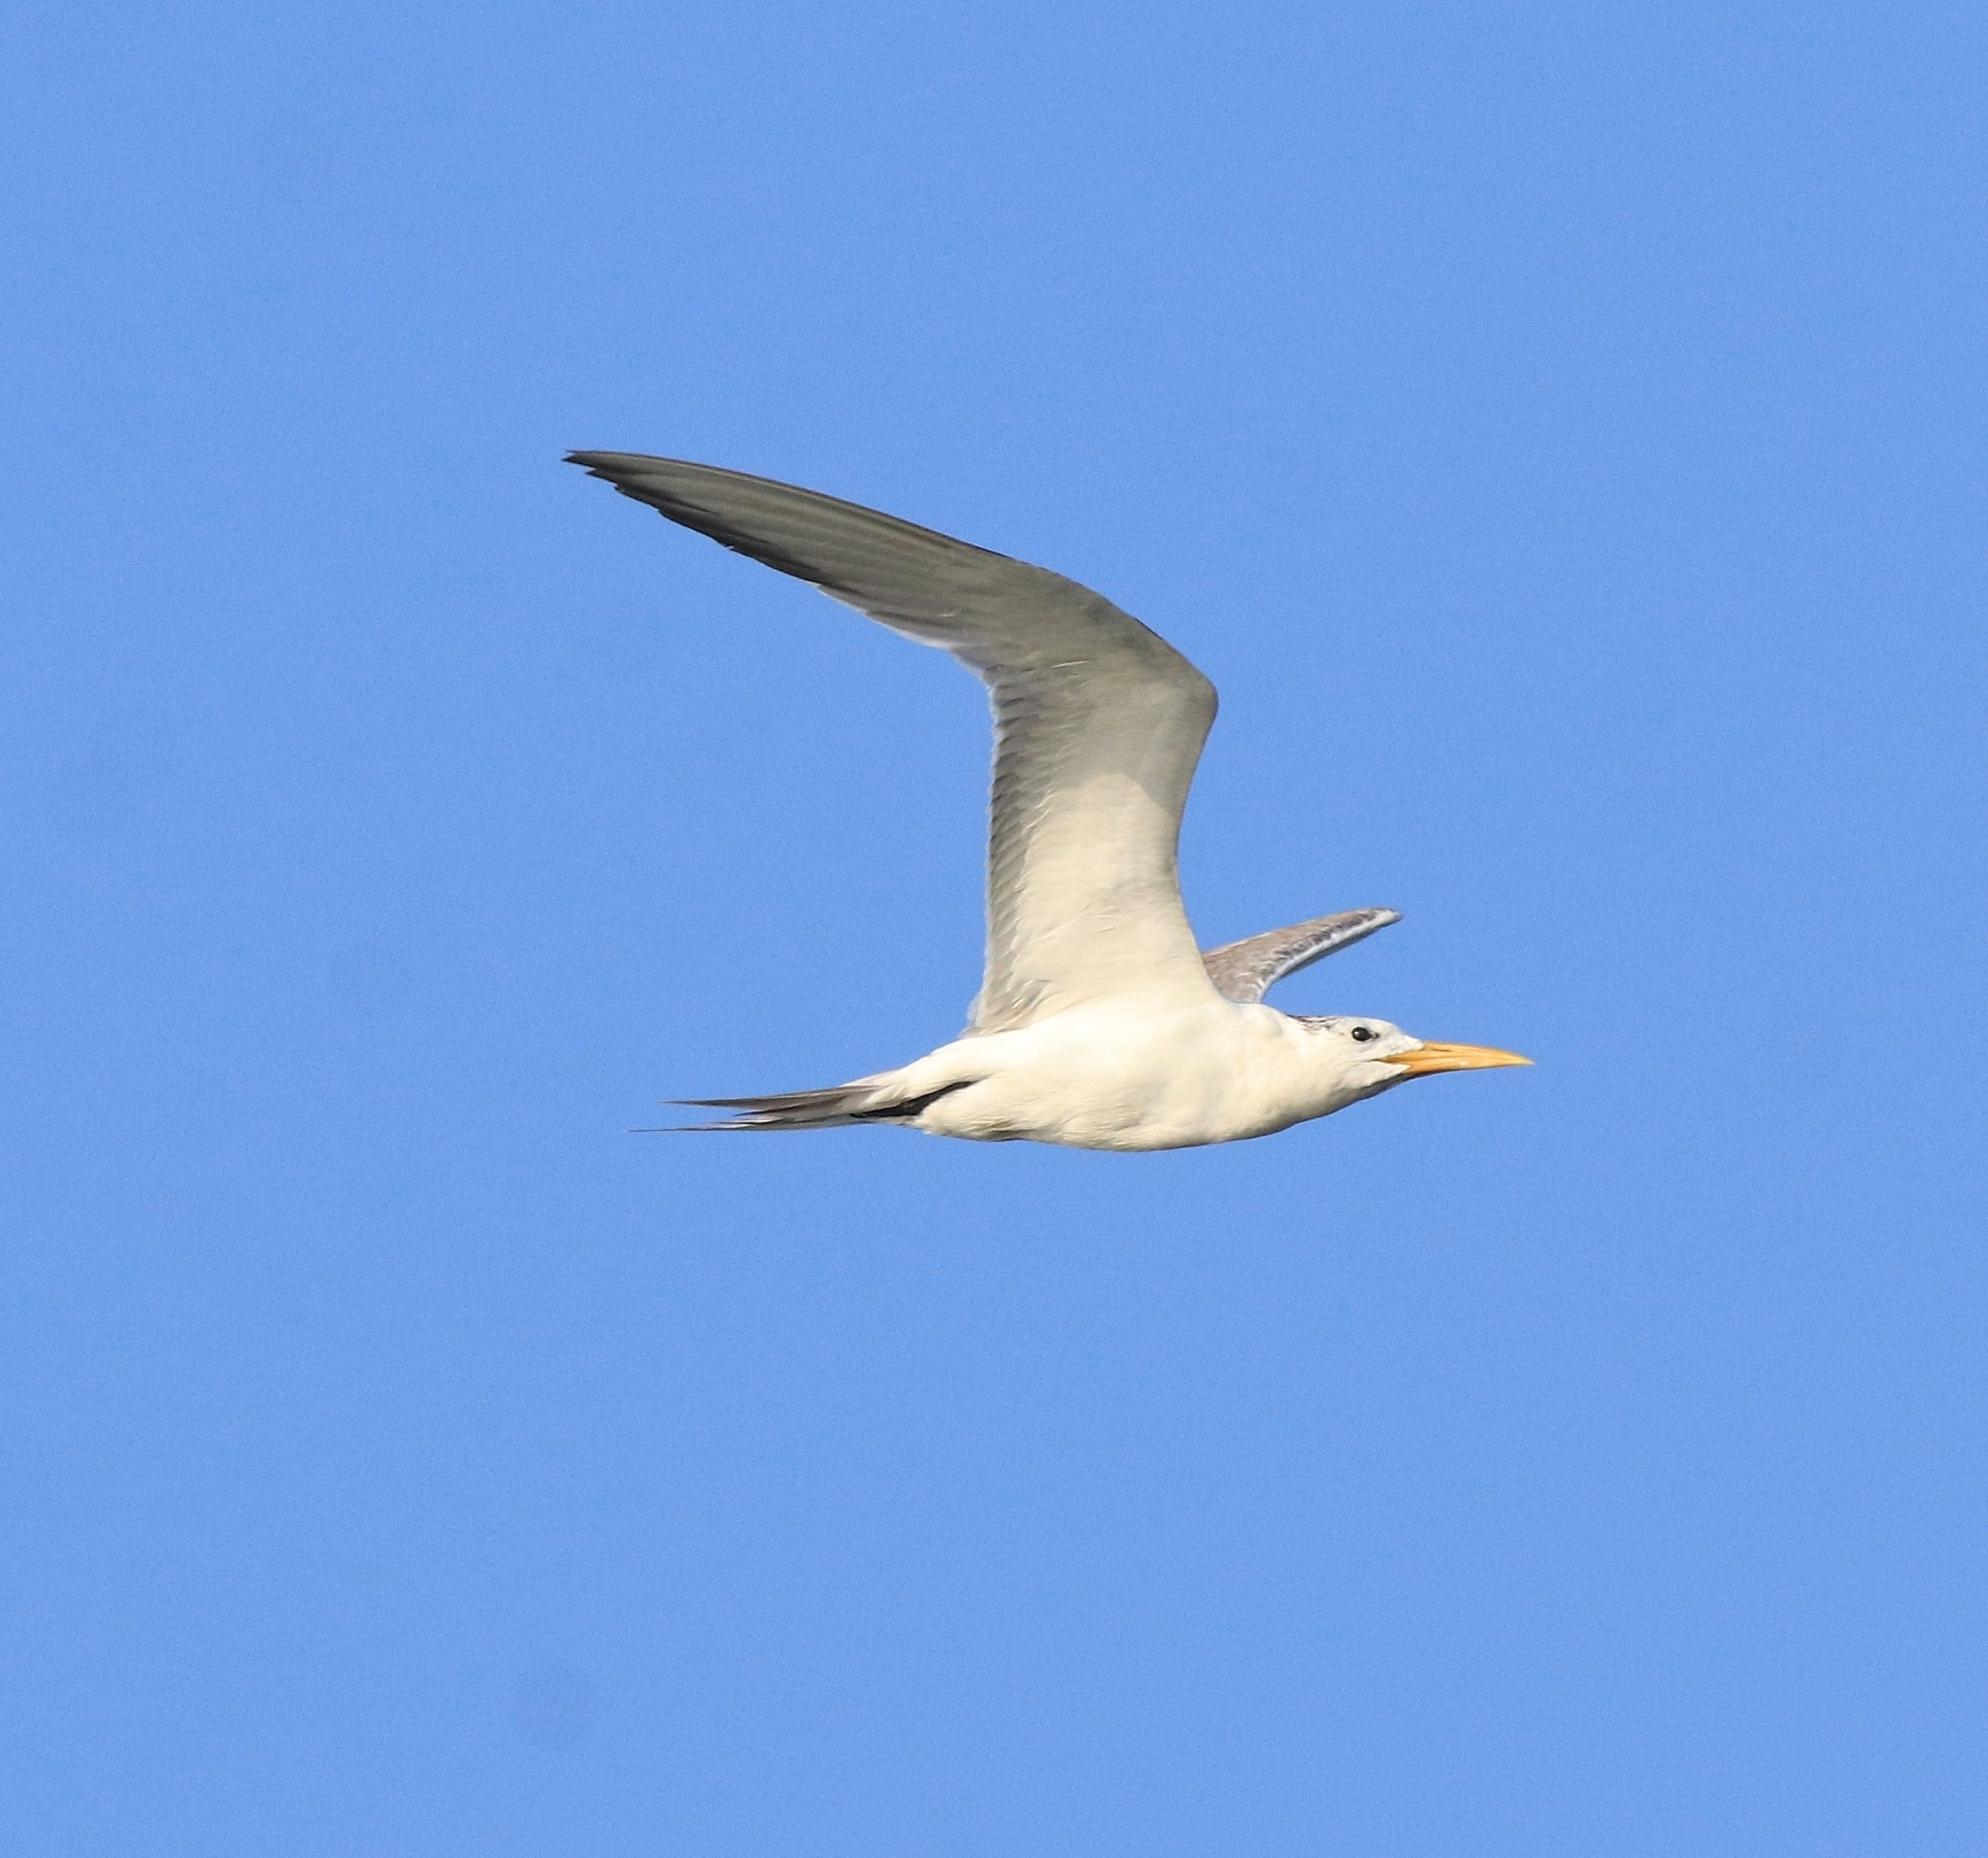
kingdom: Animalia
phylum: Chordata
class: Aves
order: Charadriiformes
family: Laridae
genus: Thalasseus
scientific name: Thalasseus bergii
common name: Greater crested tern
